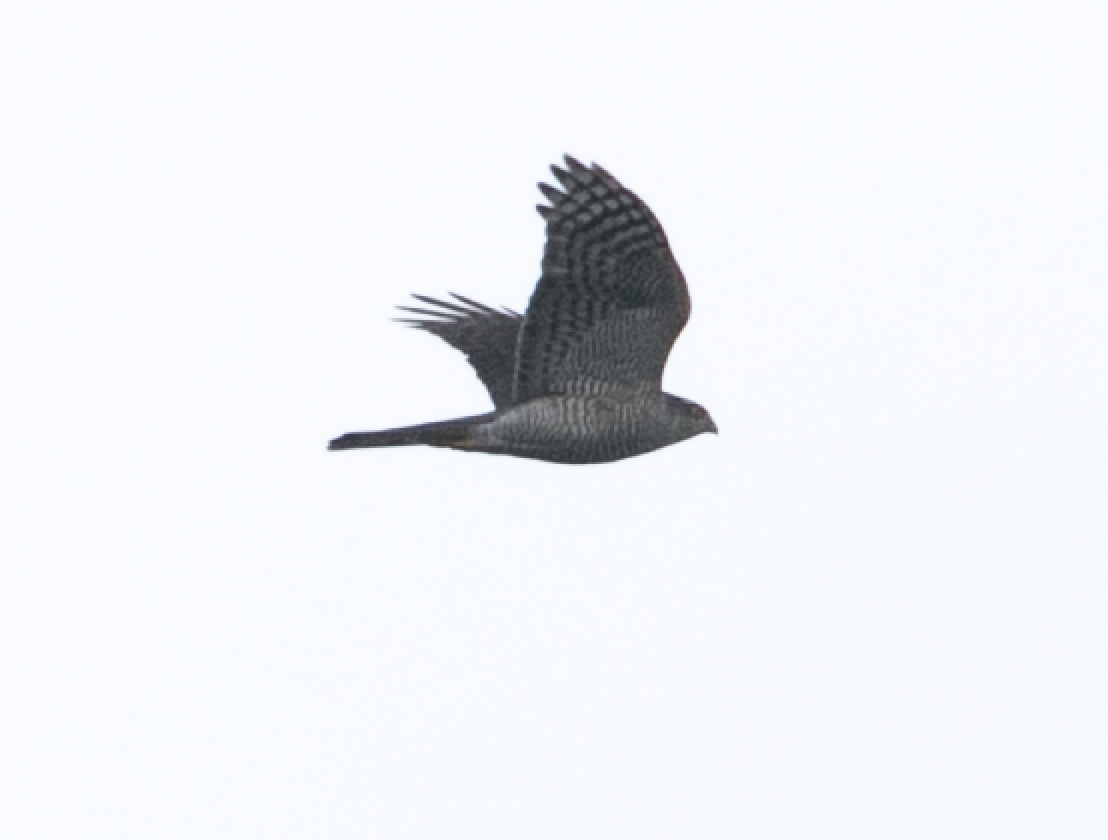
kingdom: Animalia
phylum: Chordata
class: Aves
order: Accipitriformes
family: Accipitridae
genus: Accipiter
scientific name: Accipiter nisus
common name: Eurasian sparrowhawk
